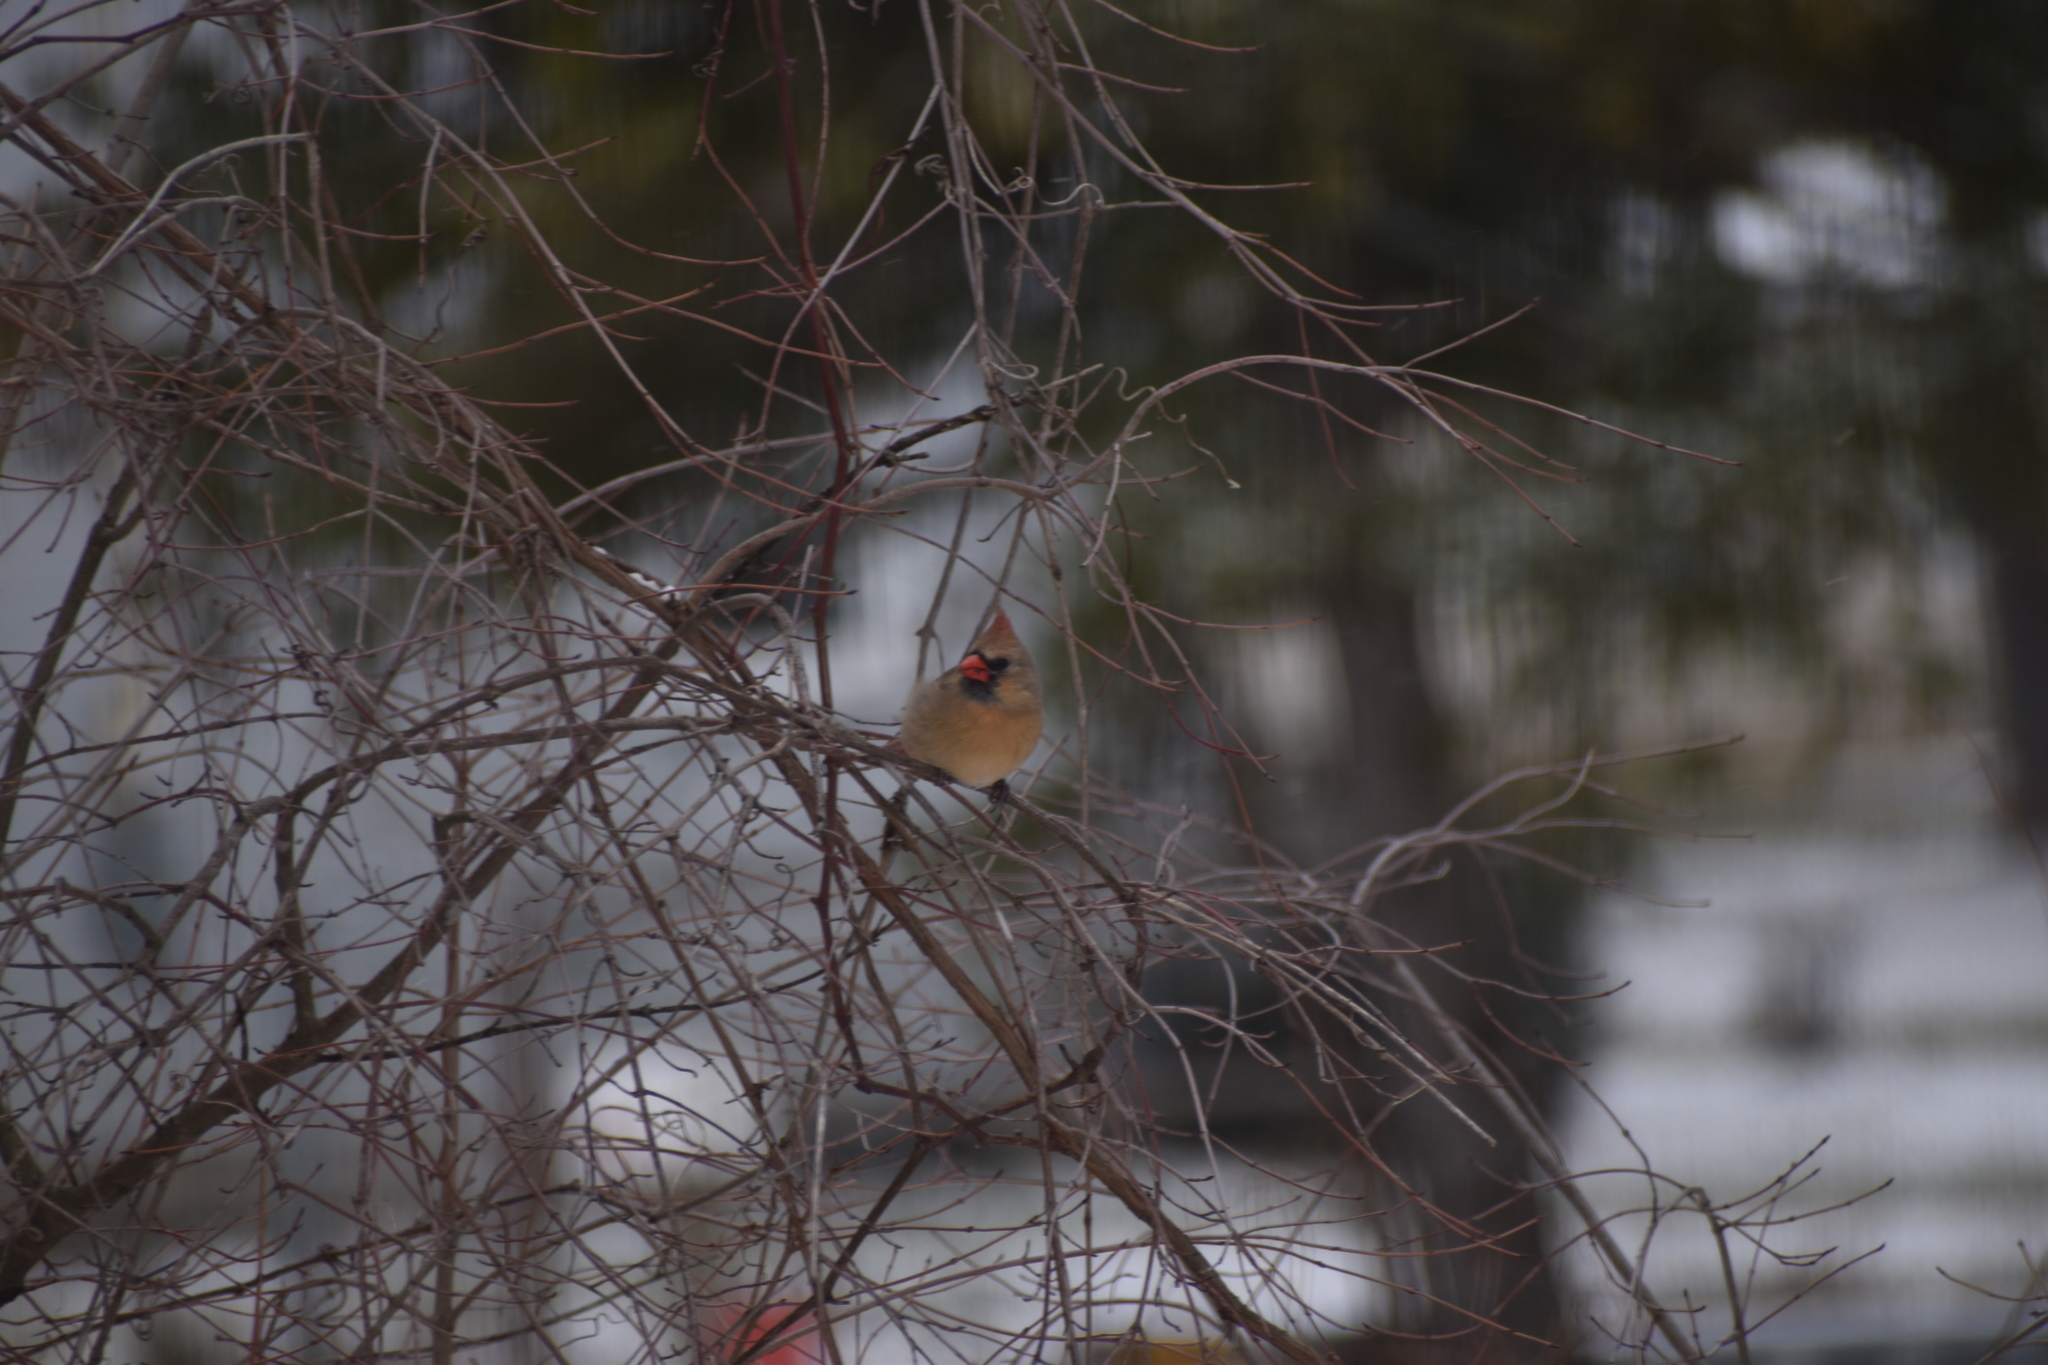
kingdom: Animalia
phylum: Chordata
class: Aves
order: Passeriformes
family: Cardinalidae
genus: Cardinalis
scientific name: Cardinalis cardinalis
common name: Northern cardinal
